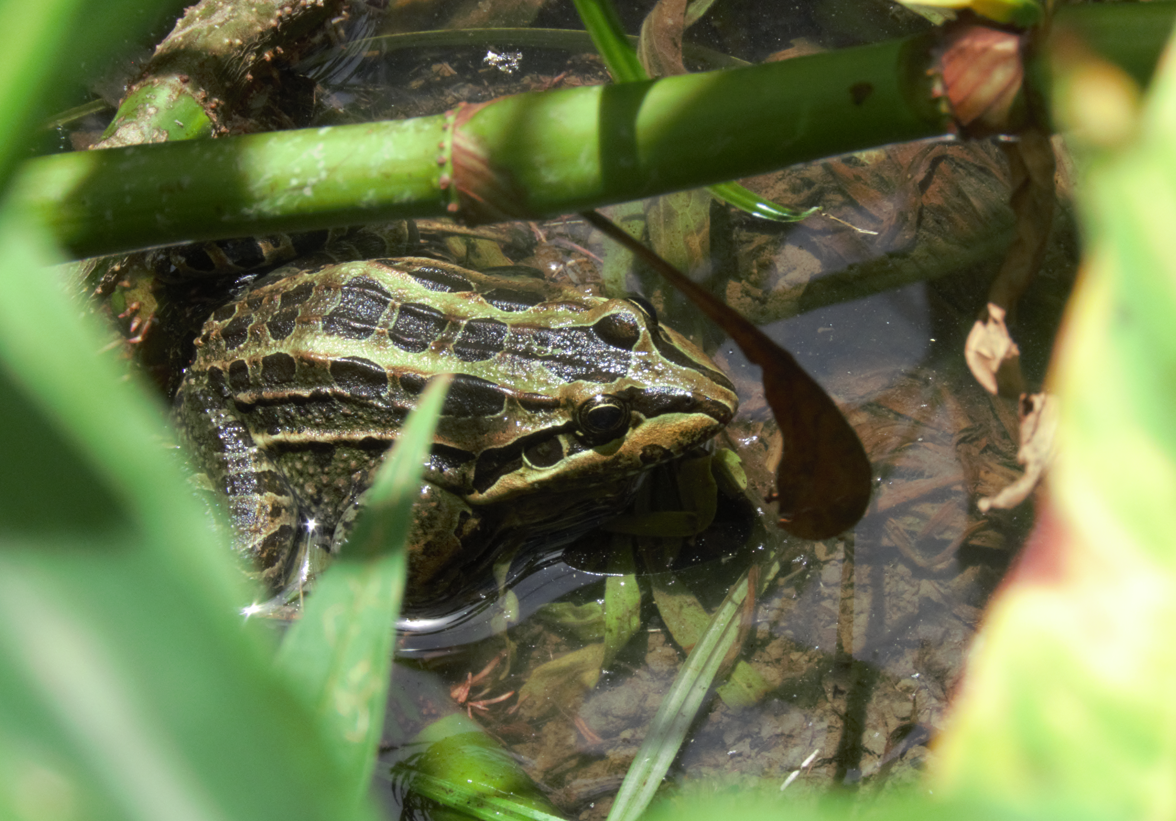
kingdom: Animalia
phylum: Chordata
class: Amphibia
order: Anura
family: Leptodactylidae
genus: Leptodactylus
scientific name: Leptodactylus luctator
